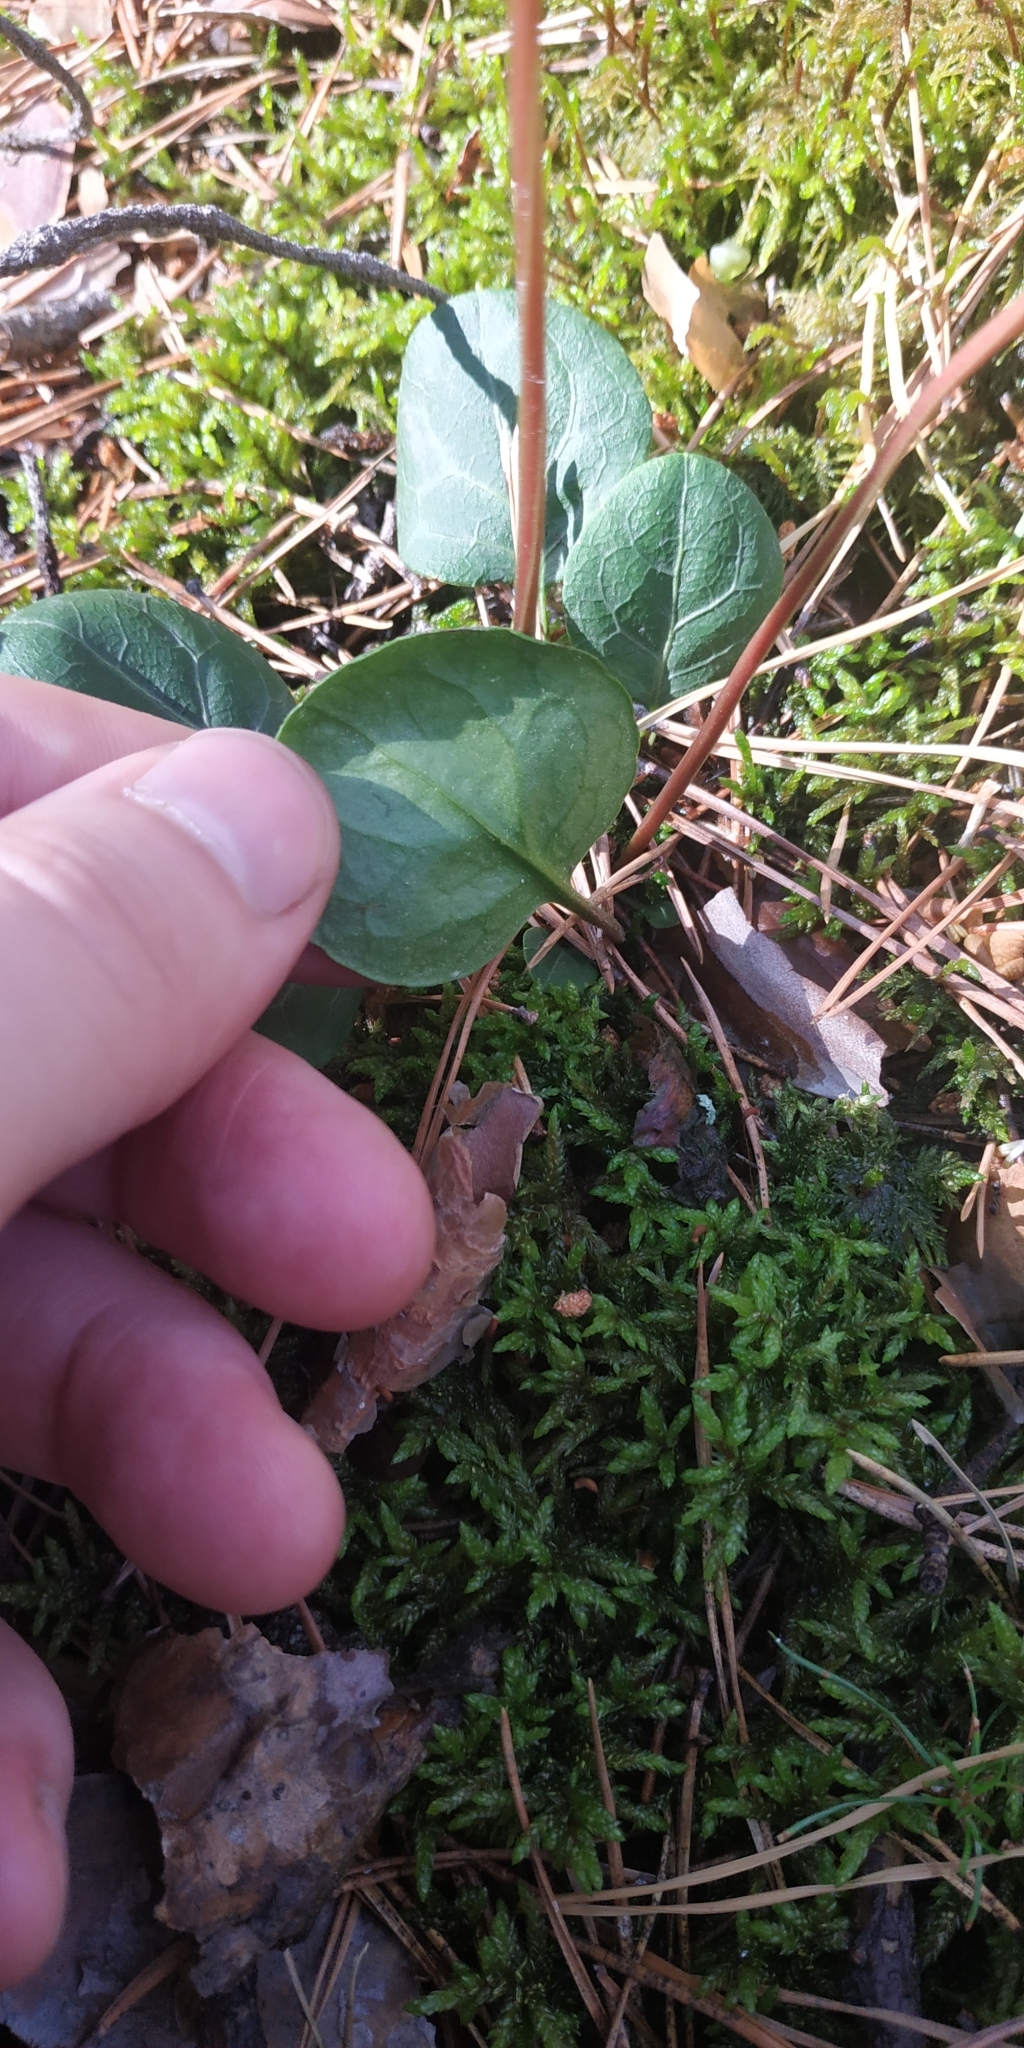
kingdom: Plantae
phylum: Tracheophyta
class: Magnoliopsida
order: Ericales
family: Ericaceae
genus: Pyrola
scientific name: Pyrola chlorantha
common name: Green wintergreen
